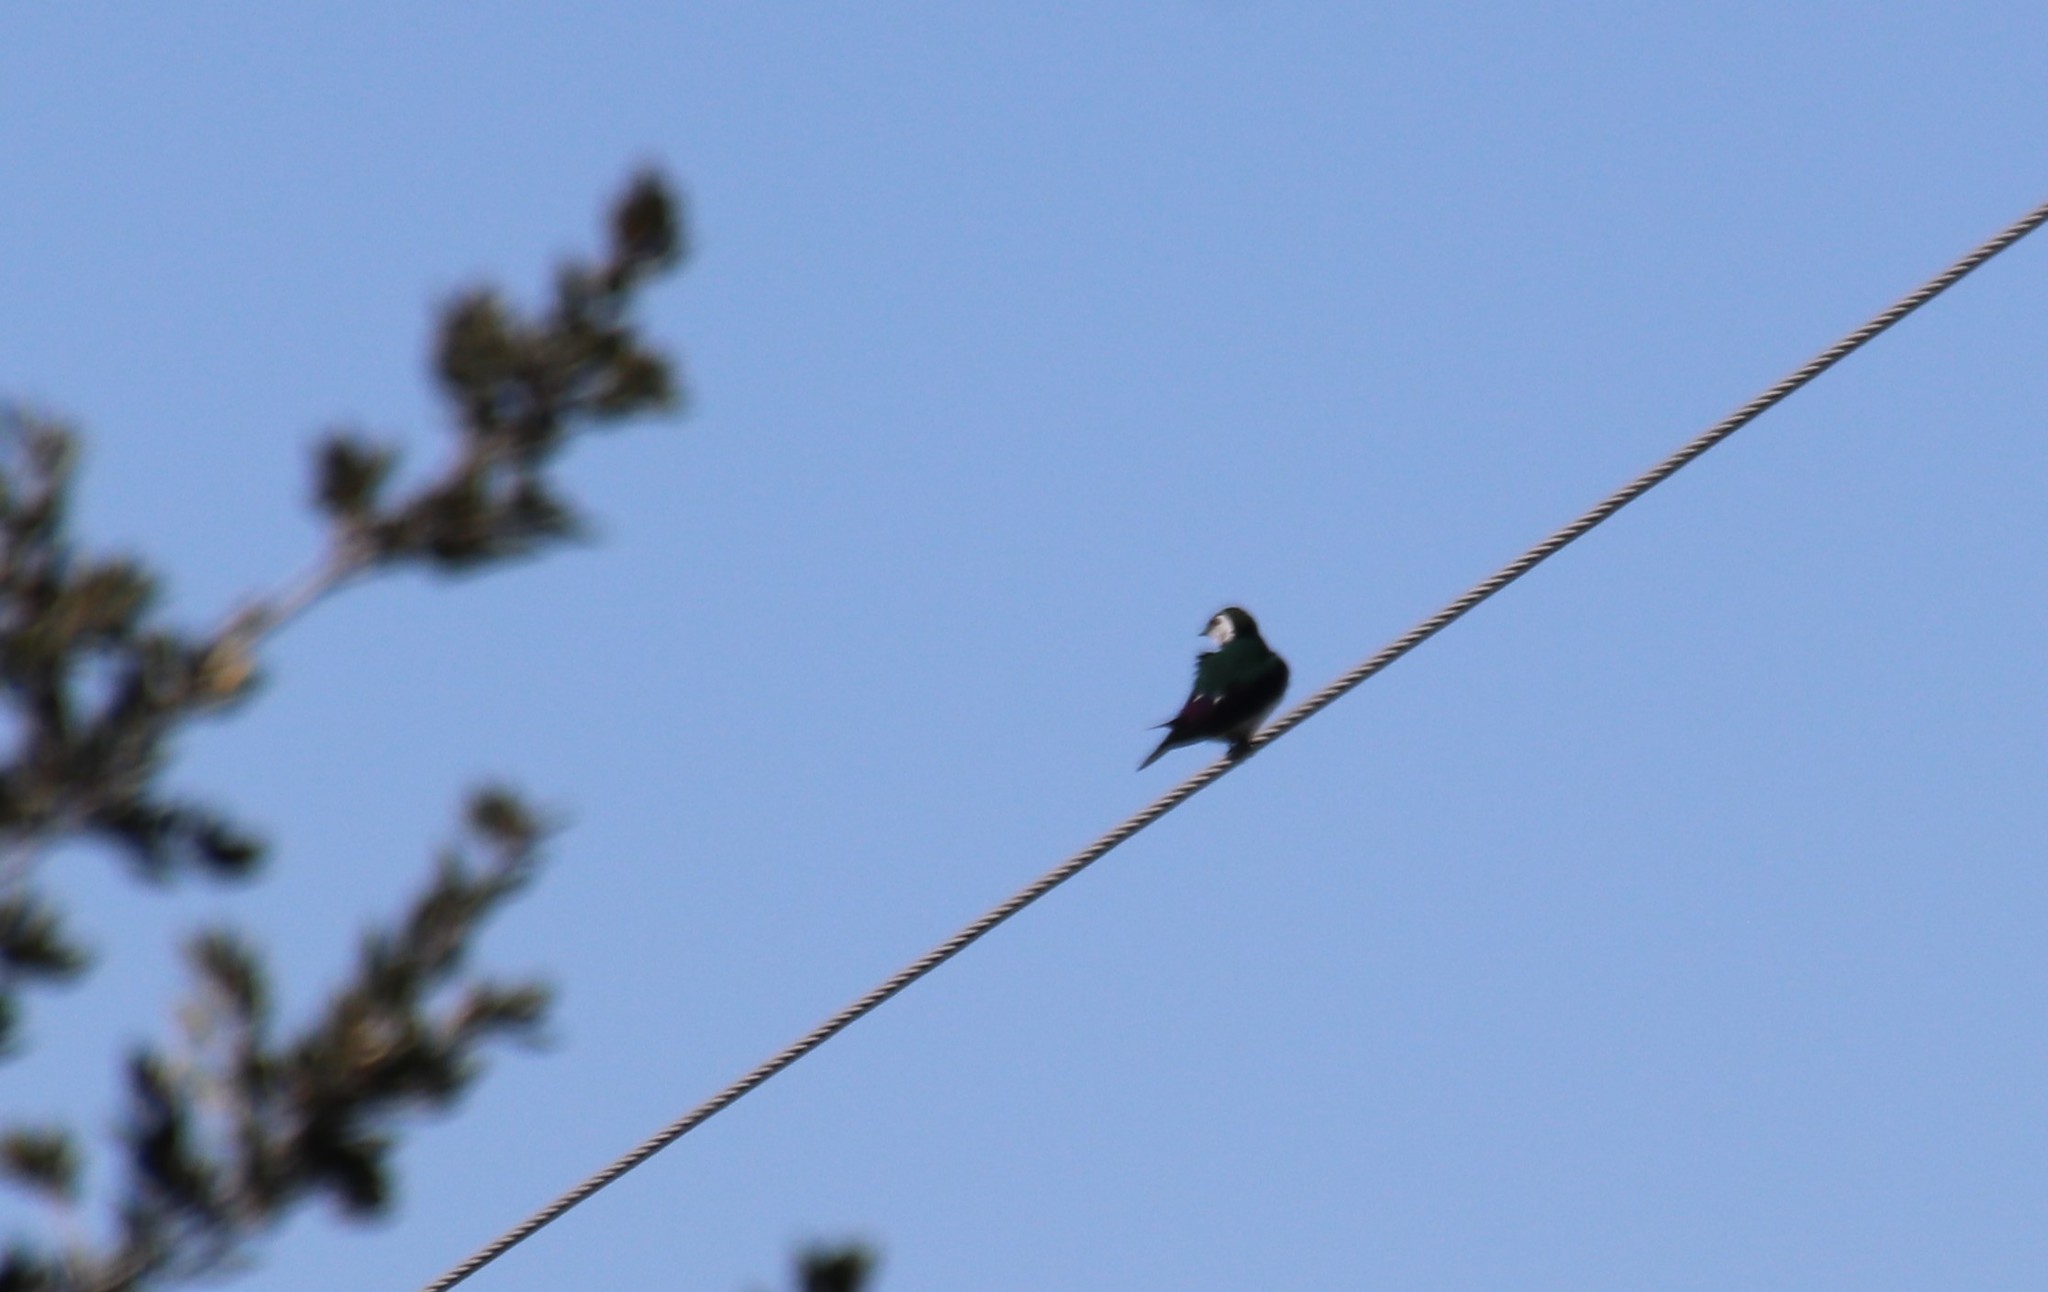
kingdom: Animalia
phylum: Chordata
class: Aves
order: Passeriformes
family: Hirundinidae
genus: Tachycineta
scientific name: Tachycineta thalassina
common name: Violet-green swallow
